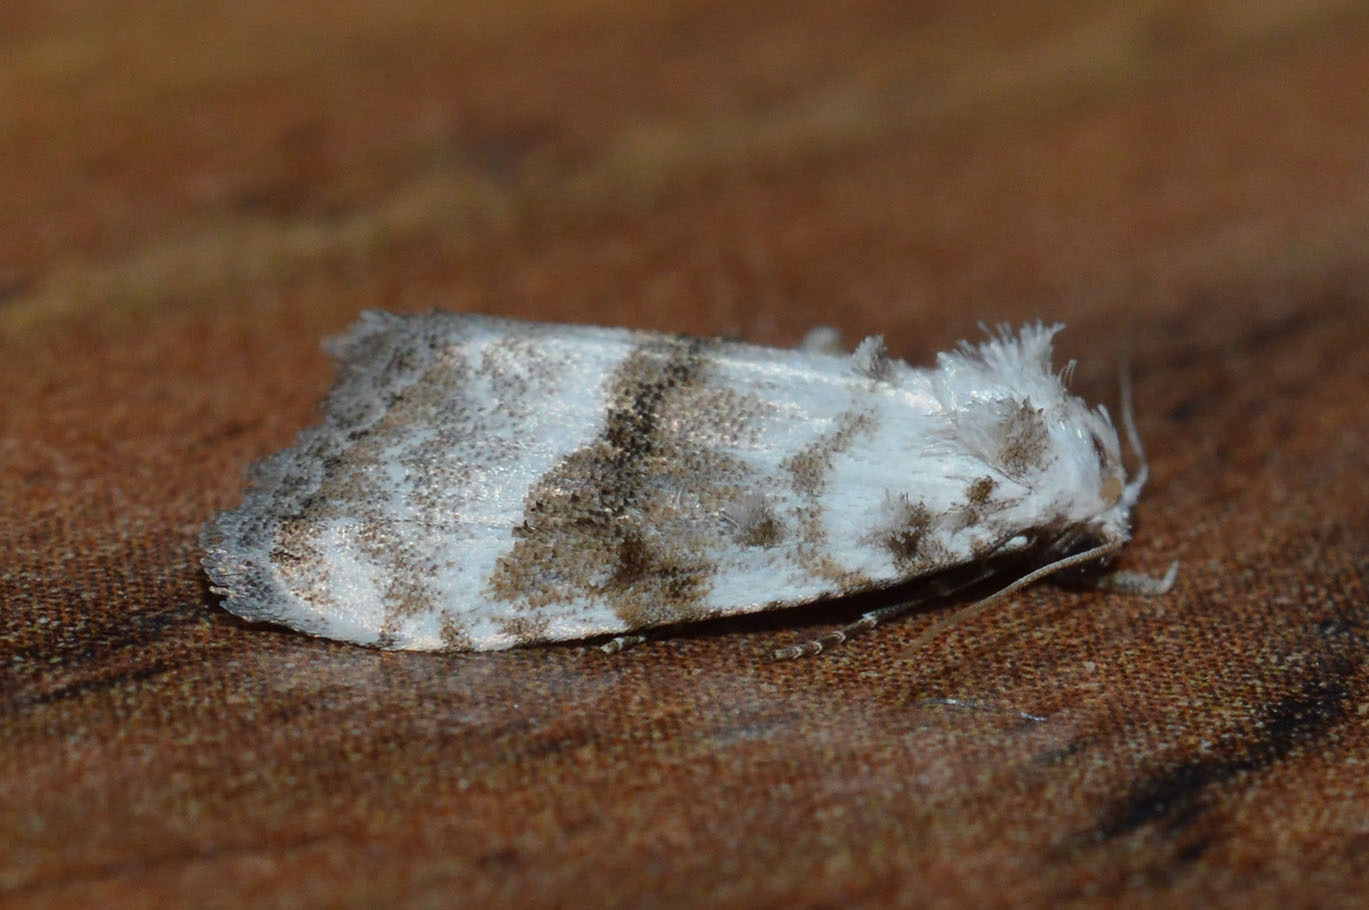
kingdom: Animalia
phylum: Arthropoda
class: Insecta
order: Lepidoptera
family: Nolidae
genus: Meganola
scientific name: Meganola albula
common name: Kent black arches
